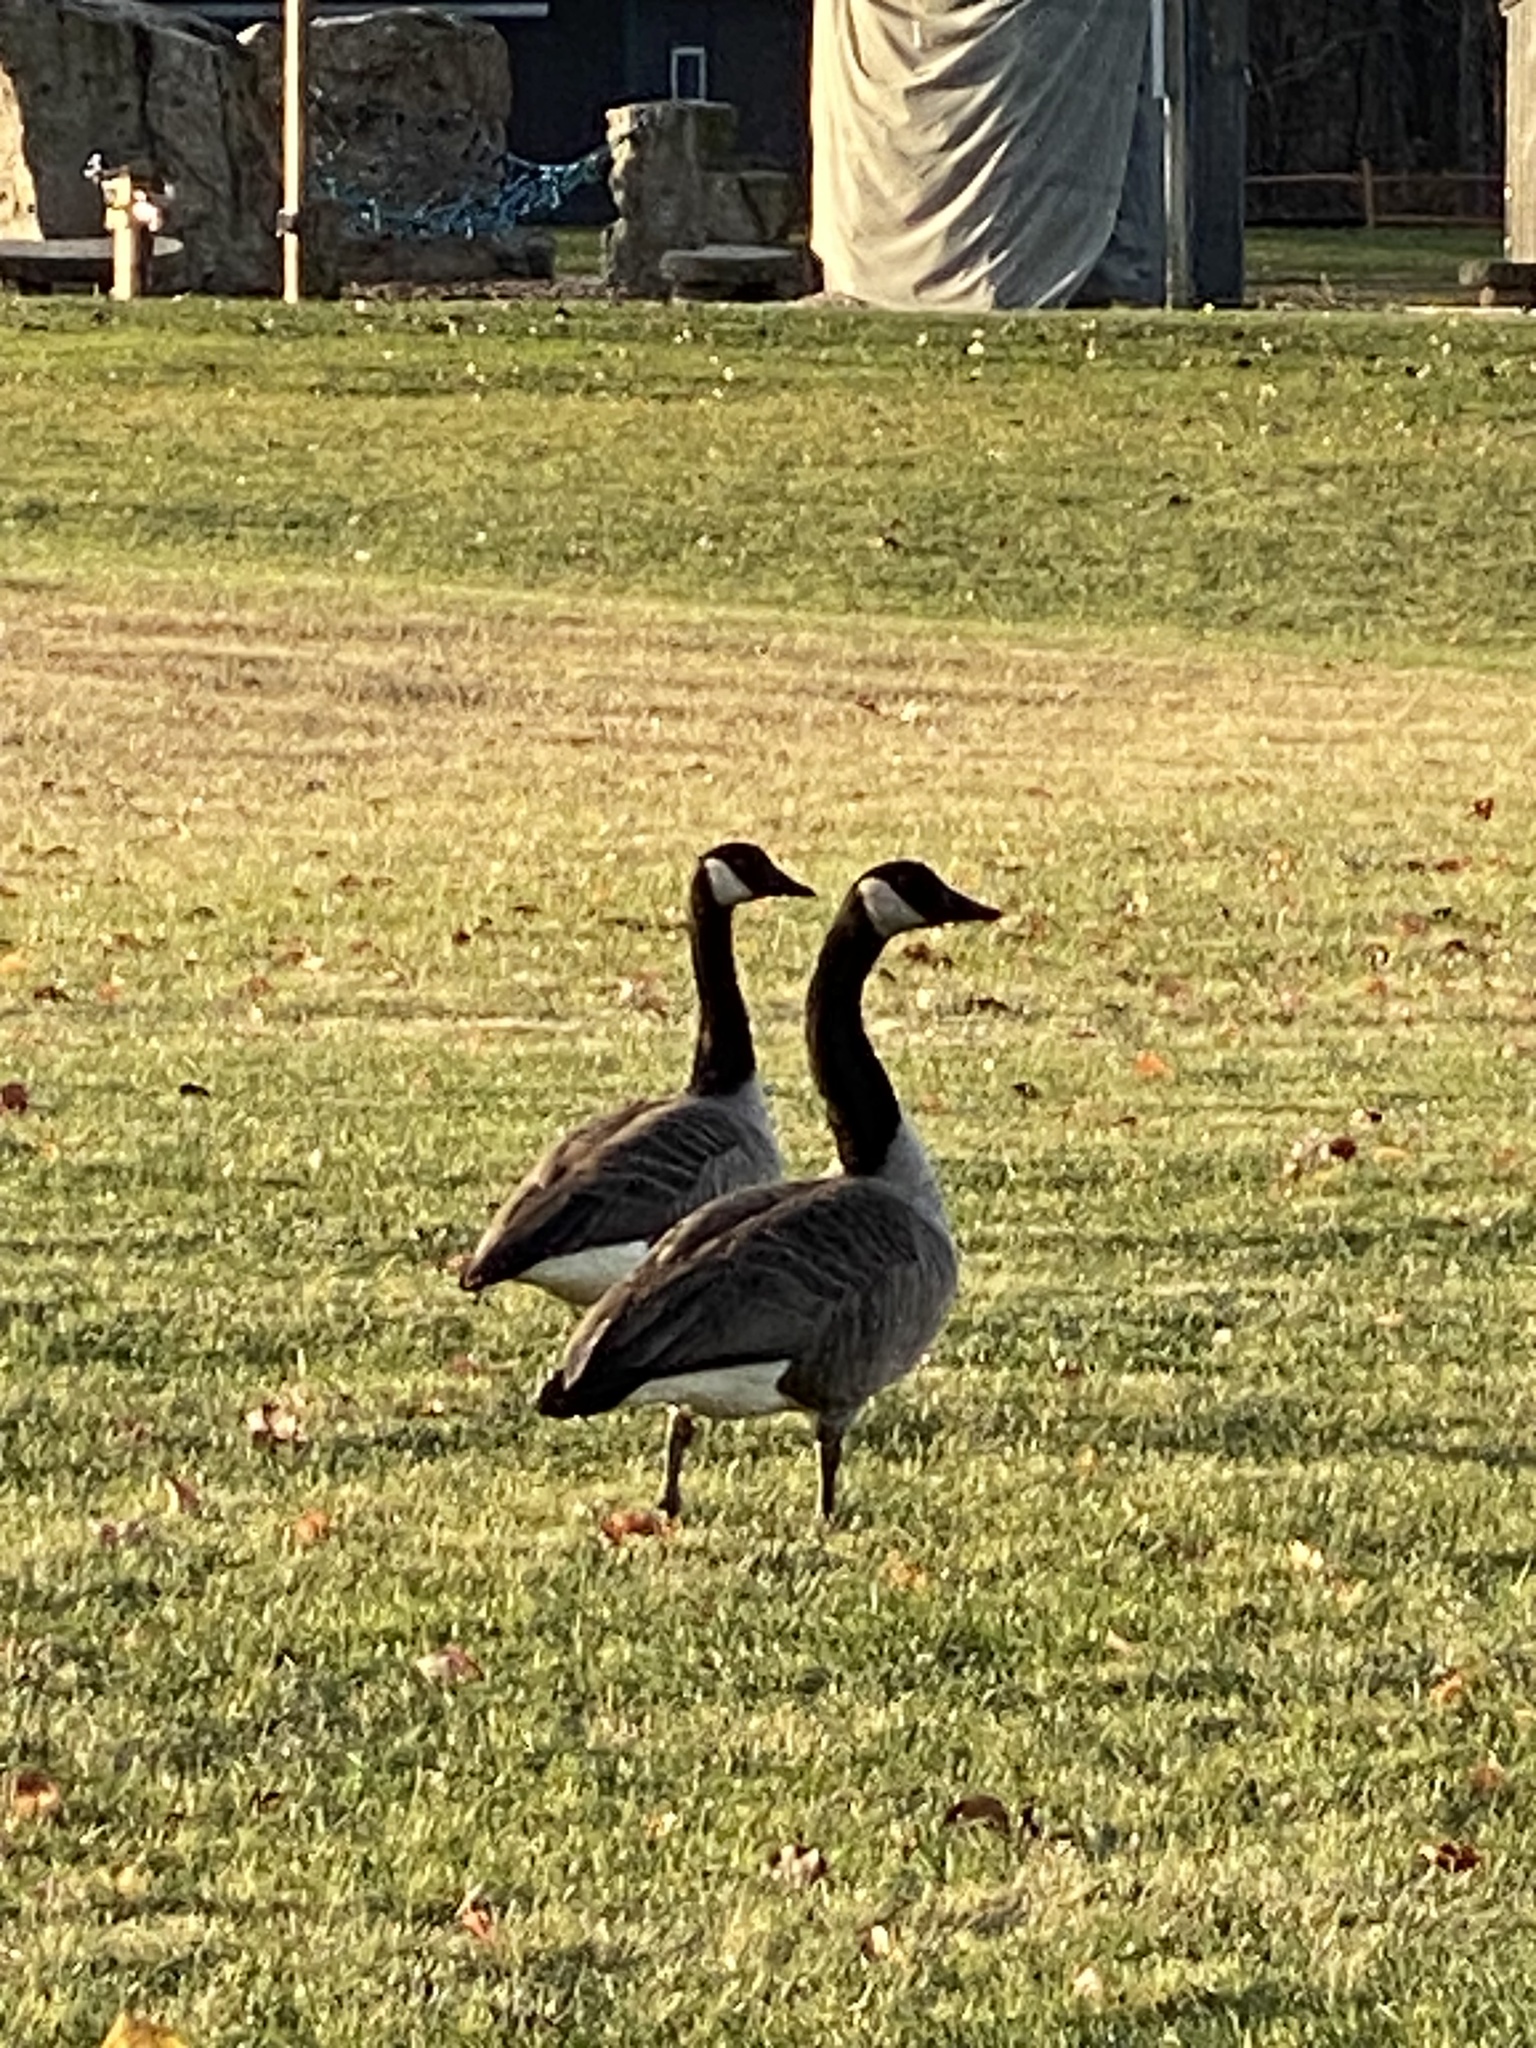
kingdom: Animalia
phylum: Chordata
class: Aves
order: Anseriformes
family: Anatidae
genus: Branta
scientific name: Branta canadensis
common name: Canada goose
